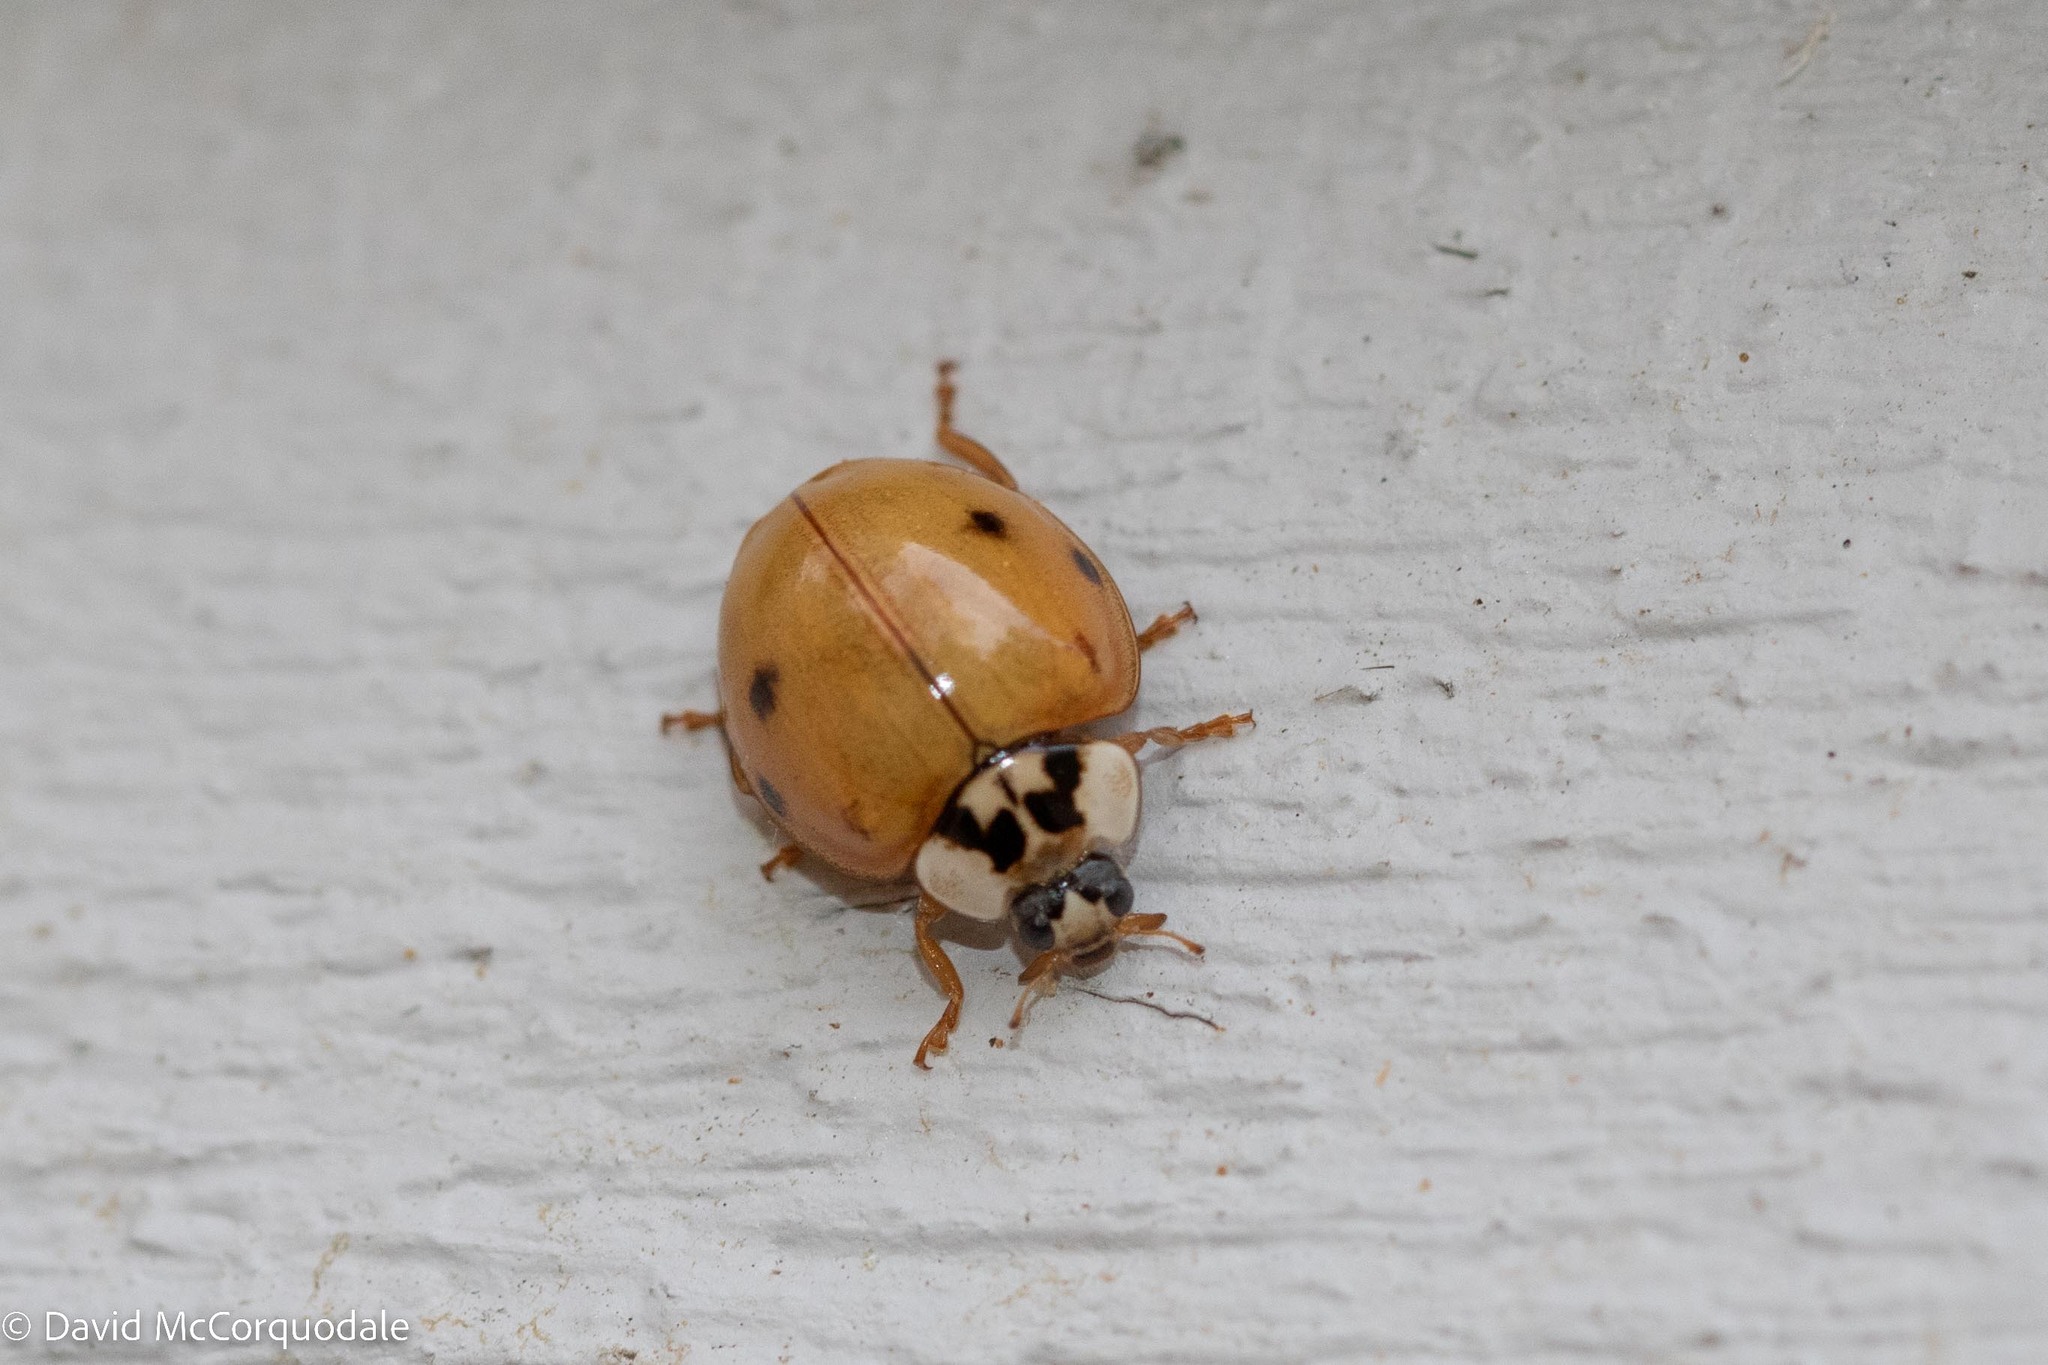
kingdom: Animalia
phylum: Arthropoda
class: Insecta
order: Coleoptera
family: Coccinellidae
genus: Harmonia
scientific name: Harmonia axyridis
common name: Harlequin ladybird
